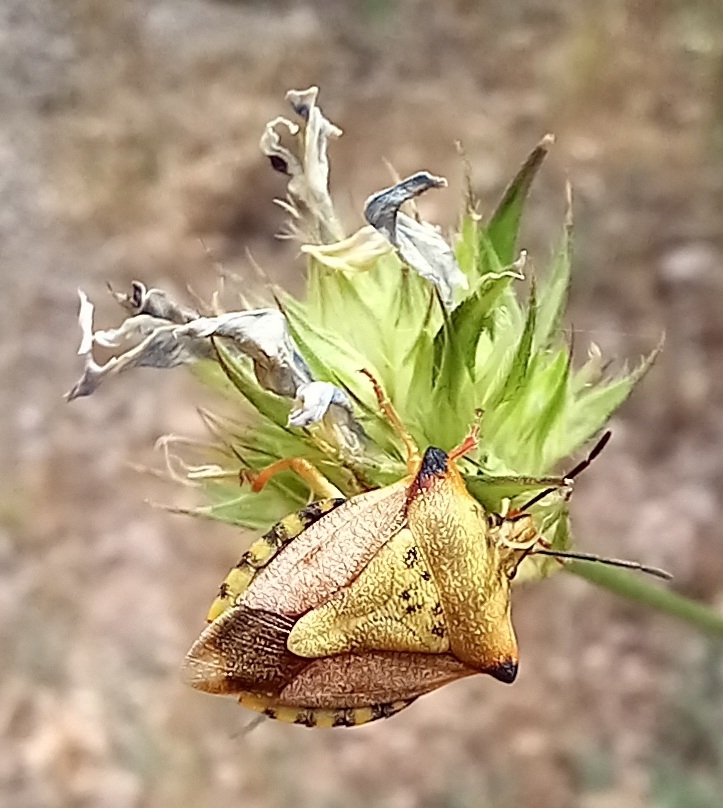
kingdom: Animalia
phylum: Arthropoda
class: Insecta
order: Hemiptera
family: Pentatomidae
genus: Carpocoris
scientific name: Carpocoris mediterraneus
